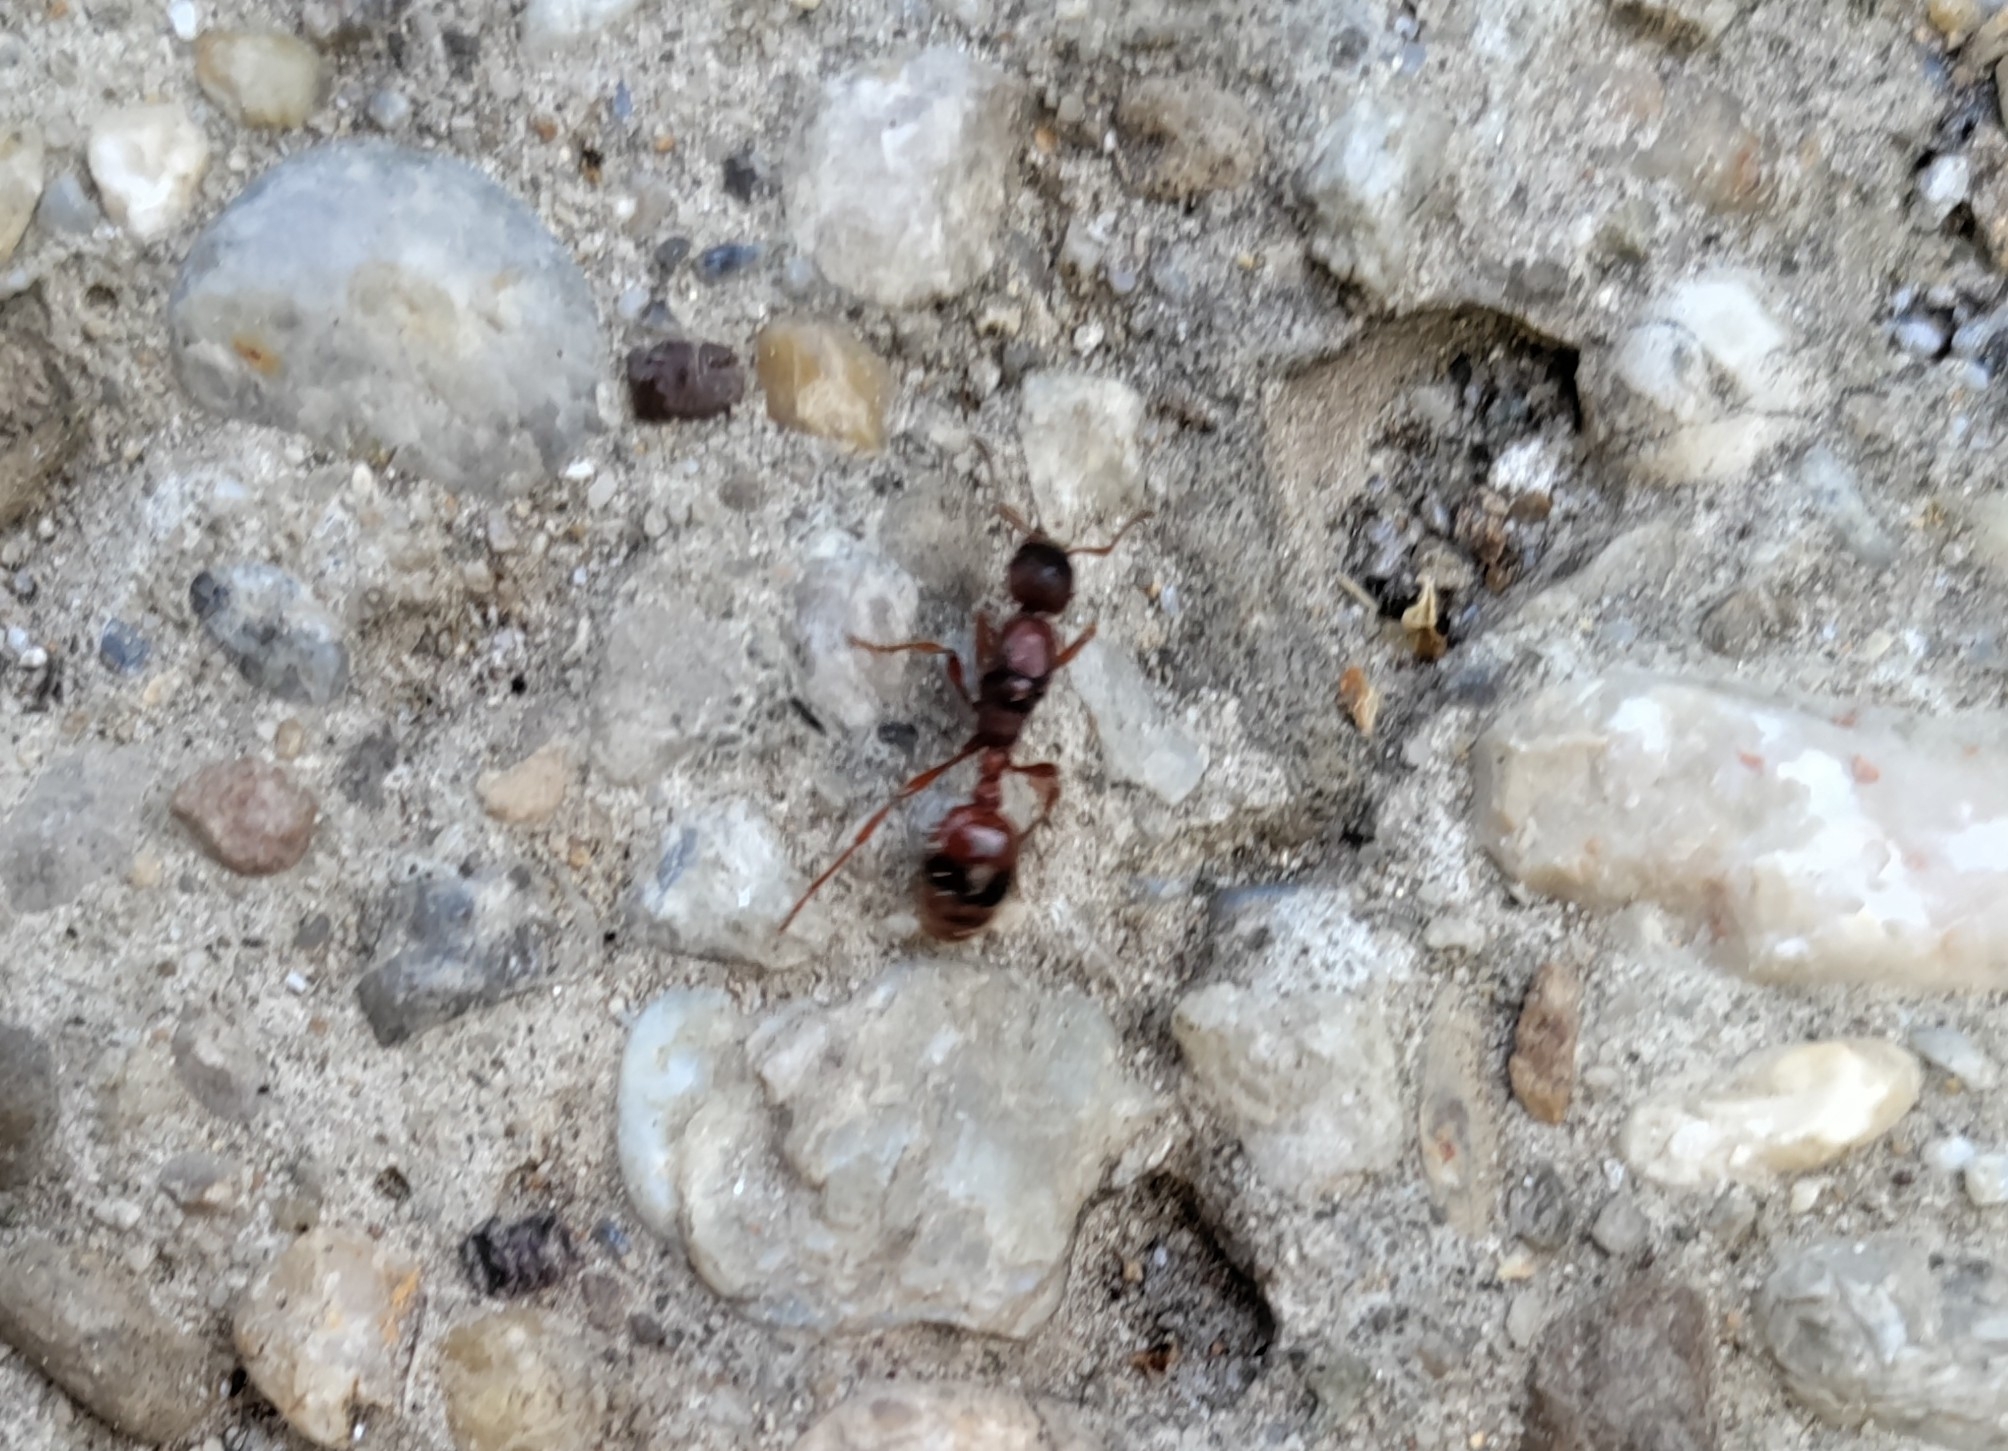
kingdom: Animalia
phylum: Arthropoda
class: Insecta
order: Hymenoptera
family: Formicidae
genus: Manica
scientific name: Manica rubida
